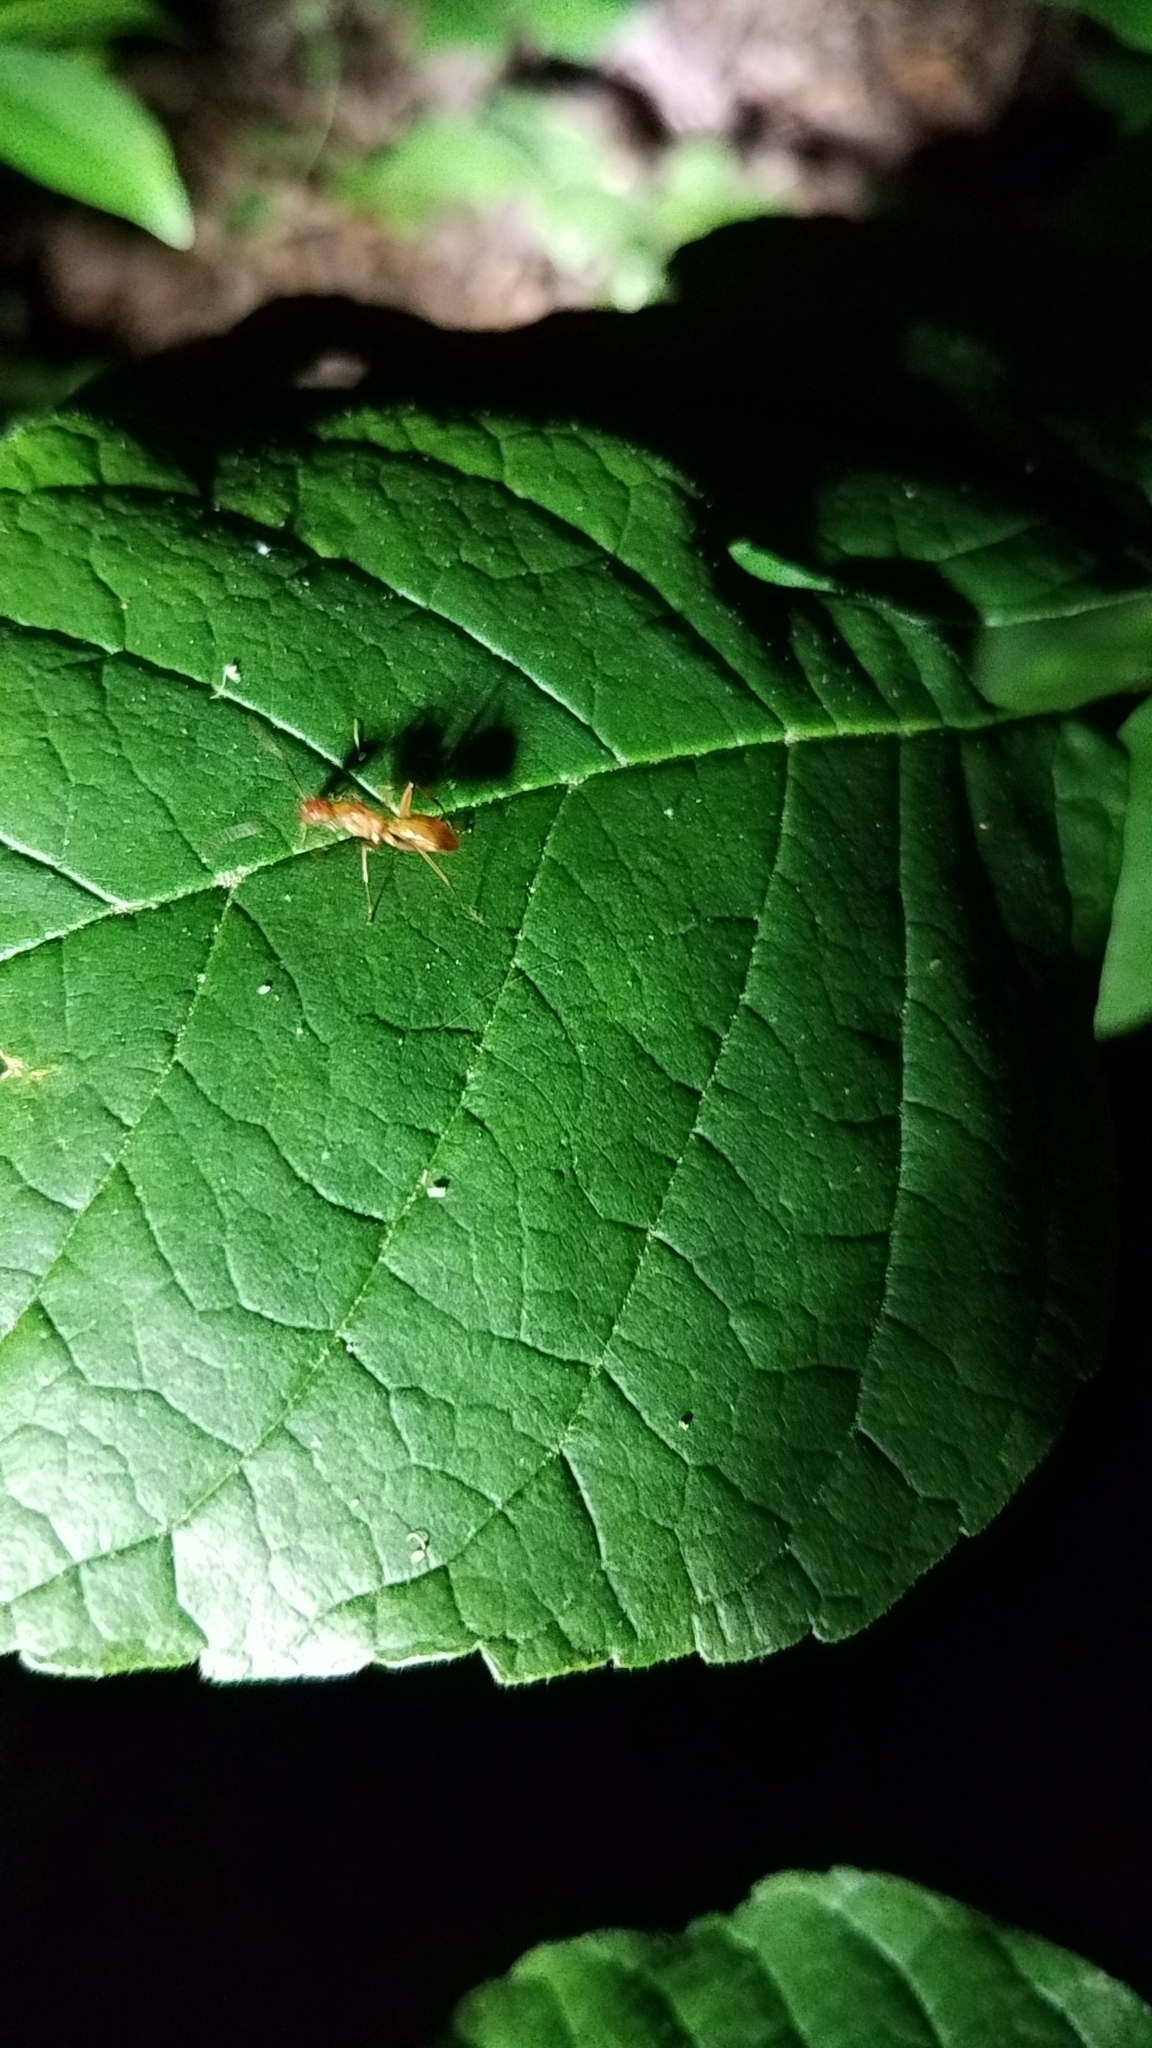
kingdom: Animalia
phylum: Arthropoda
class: Insecta
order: Hymenoptera
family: Formicidae
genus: Camponotus
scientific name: Camponotus castaneus
